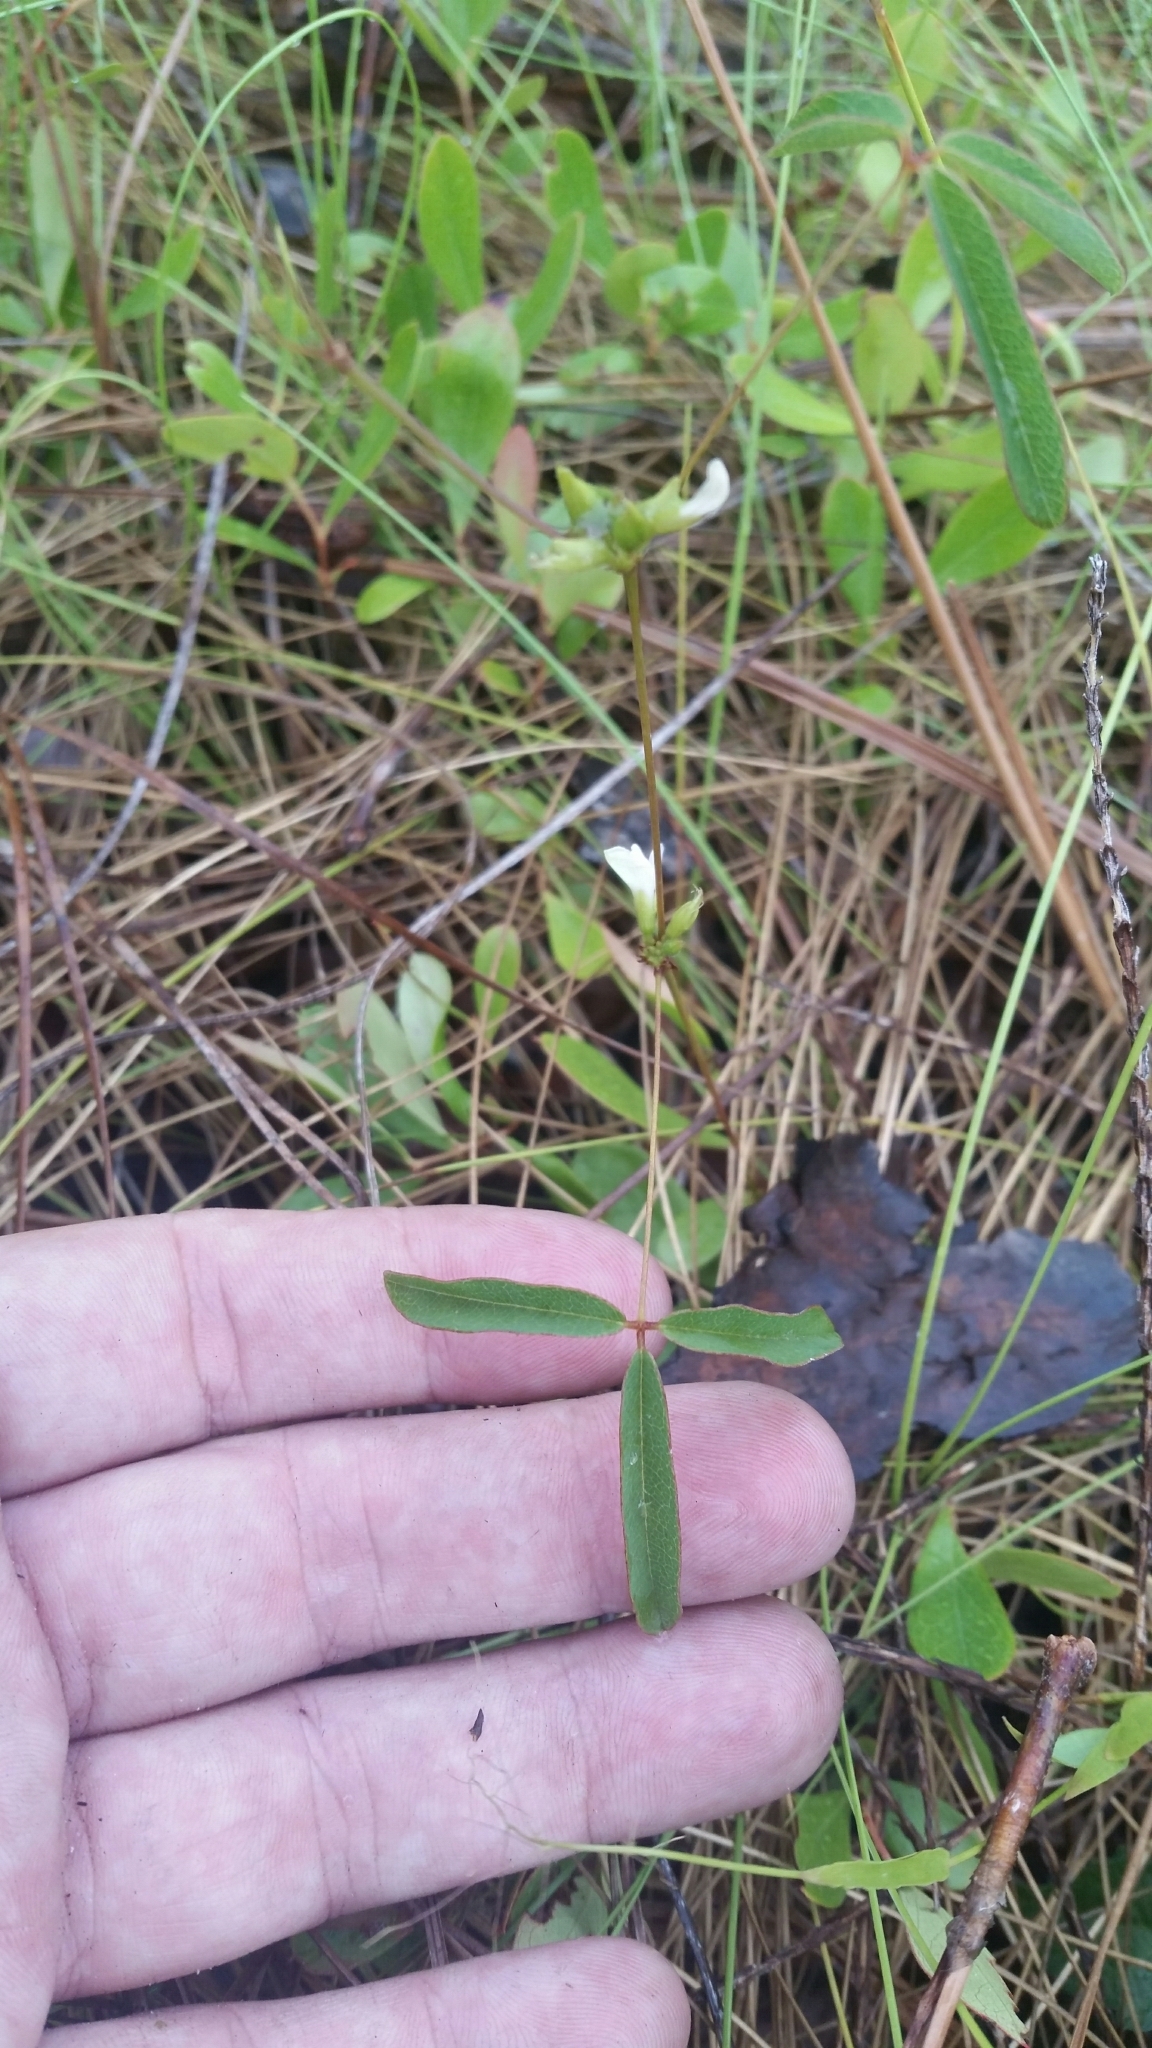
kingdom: Plantae
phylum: Tracheophyta
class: Magnoliopsida
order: Fabales
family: Fabaceae
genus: Galactia
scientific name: Galactia erecta
